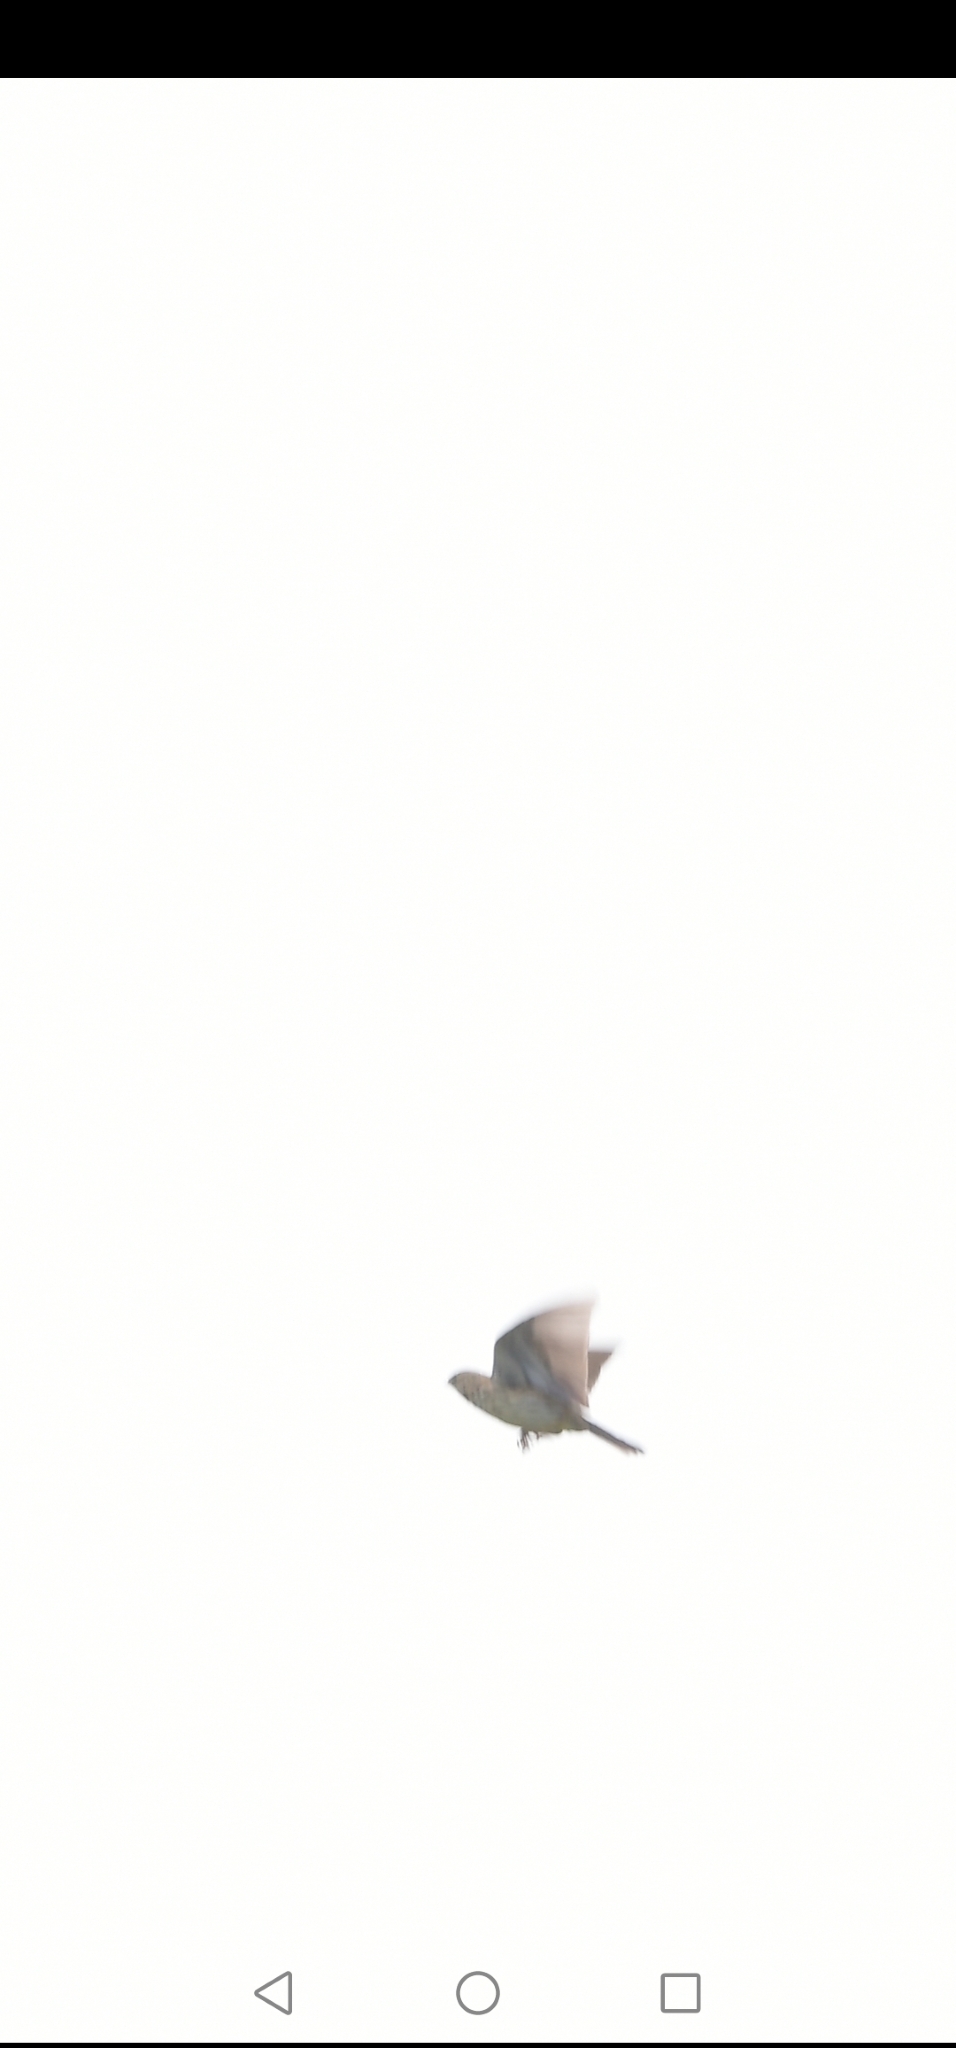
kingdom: Animalia
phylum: Chordata
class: Aves
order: Passeriformes
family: Alaudidae
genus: Alauda
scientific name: Alauda arvensis
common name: Eurasian skylark
